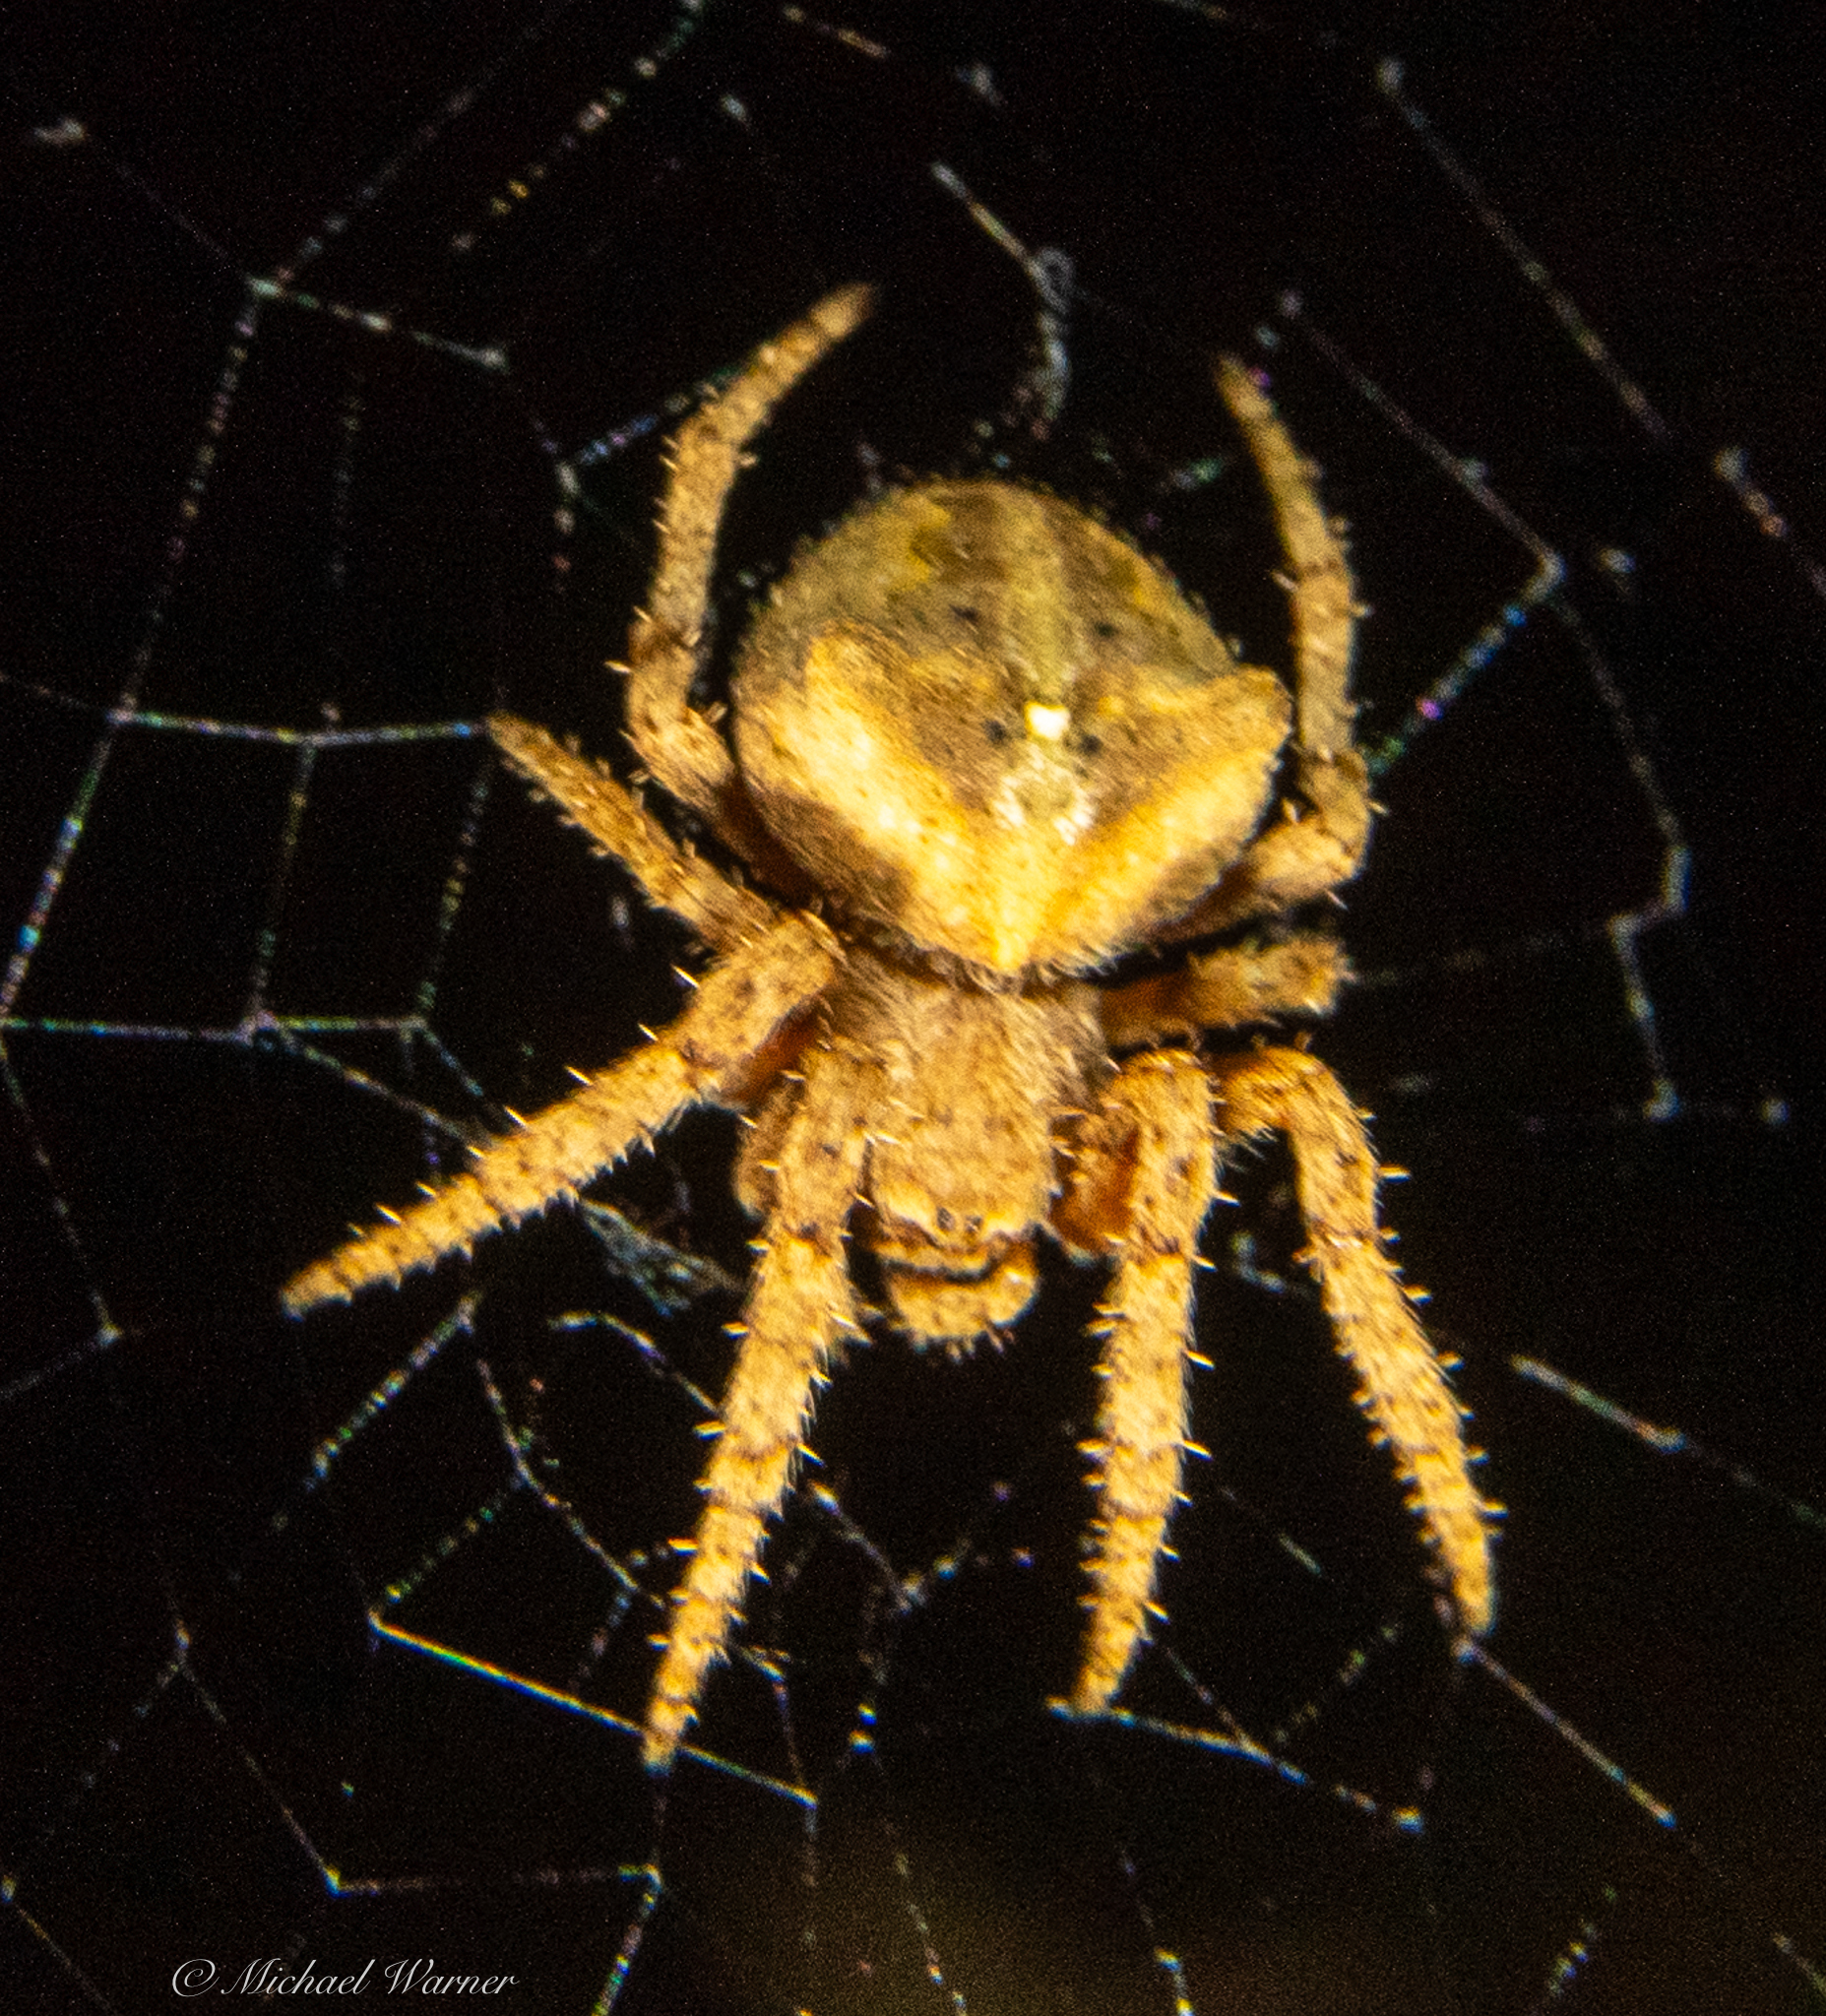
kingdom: Animalia
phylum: Arthropoda
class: Arachnida
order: Araneae
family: Araneidae
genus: Araneus
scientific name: Araneus andrewsi
